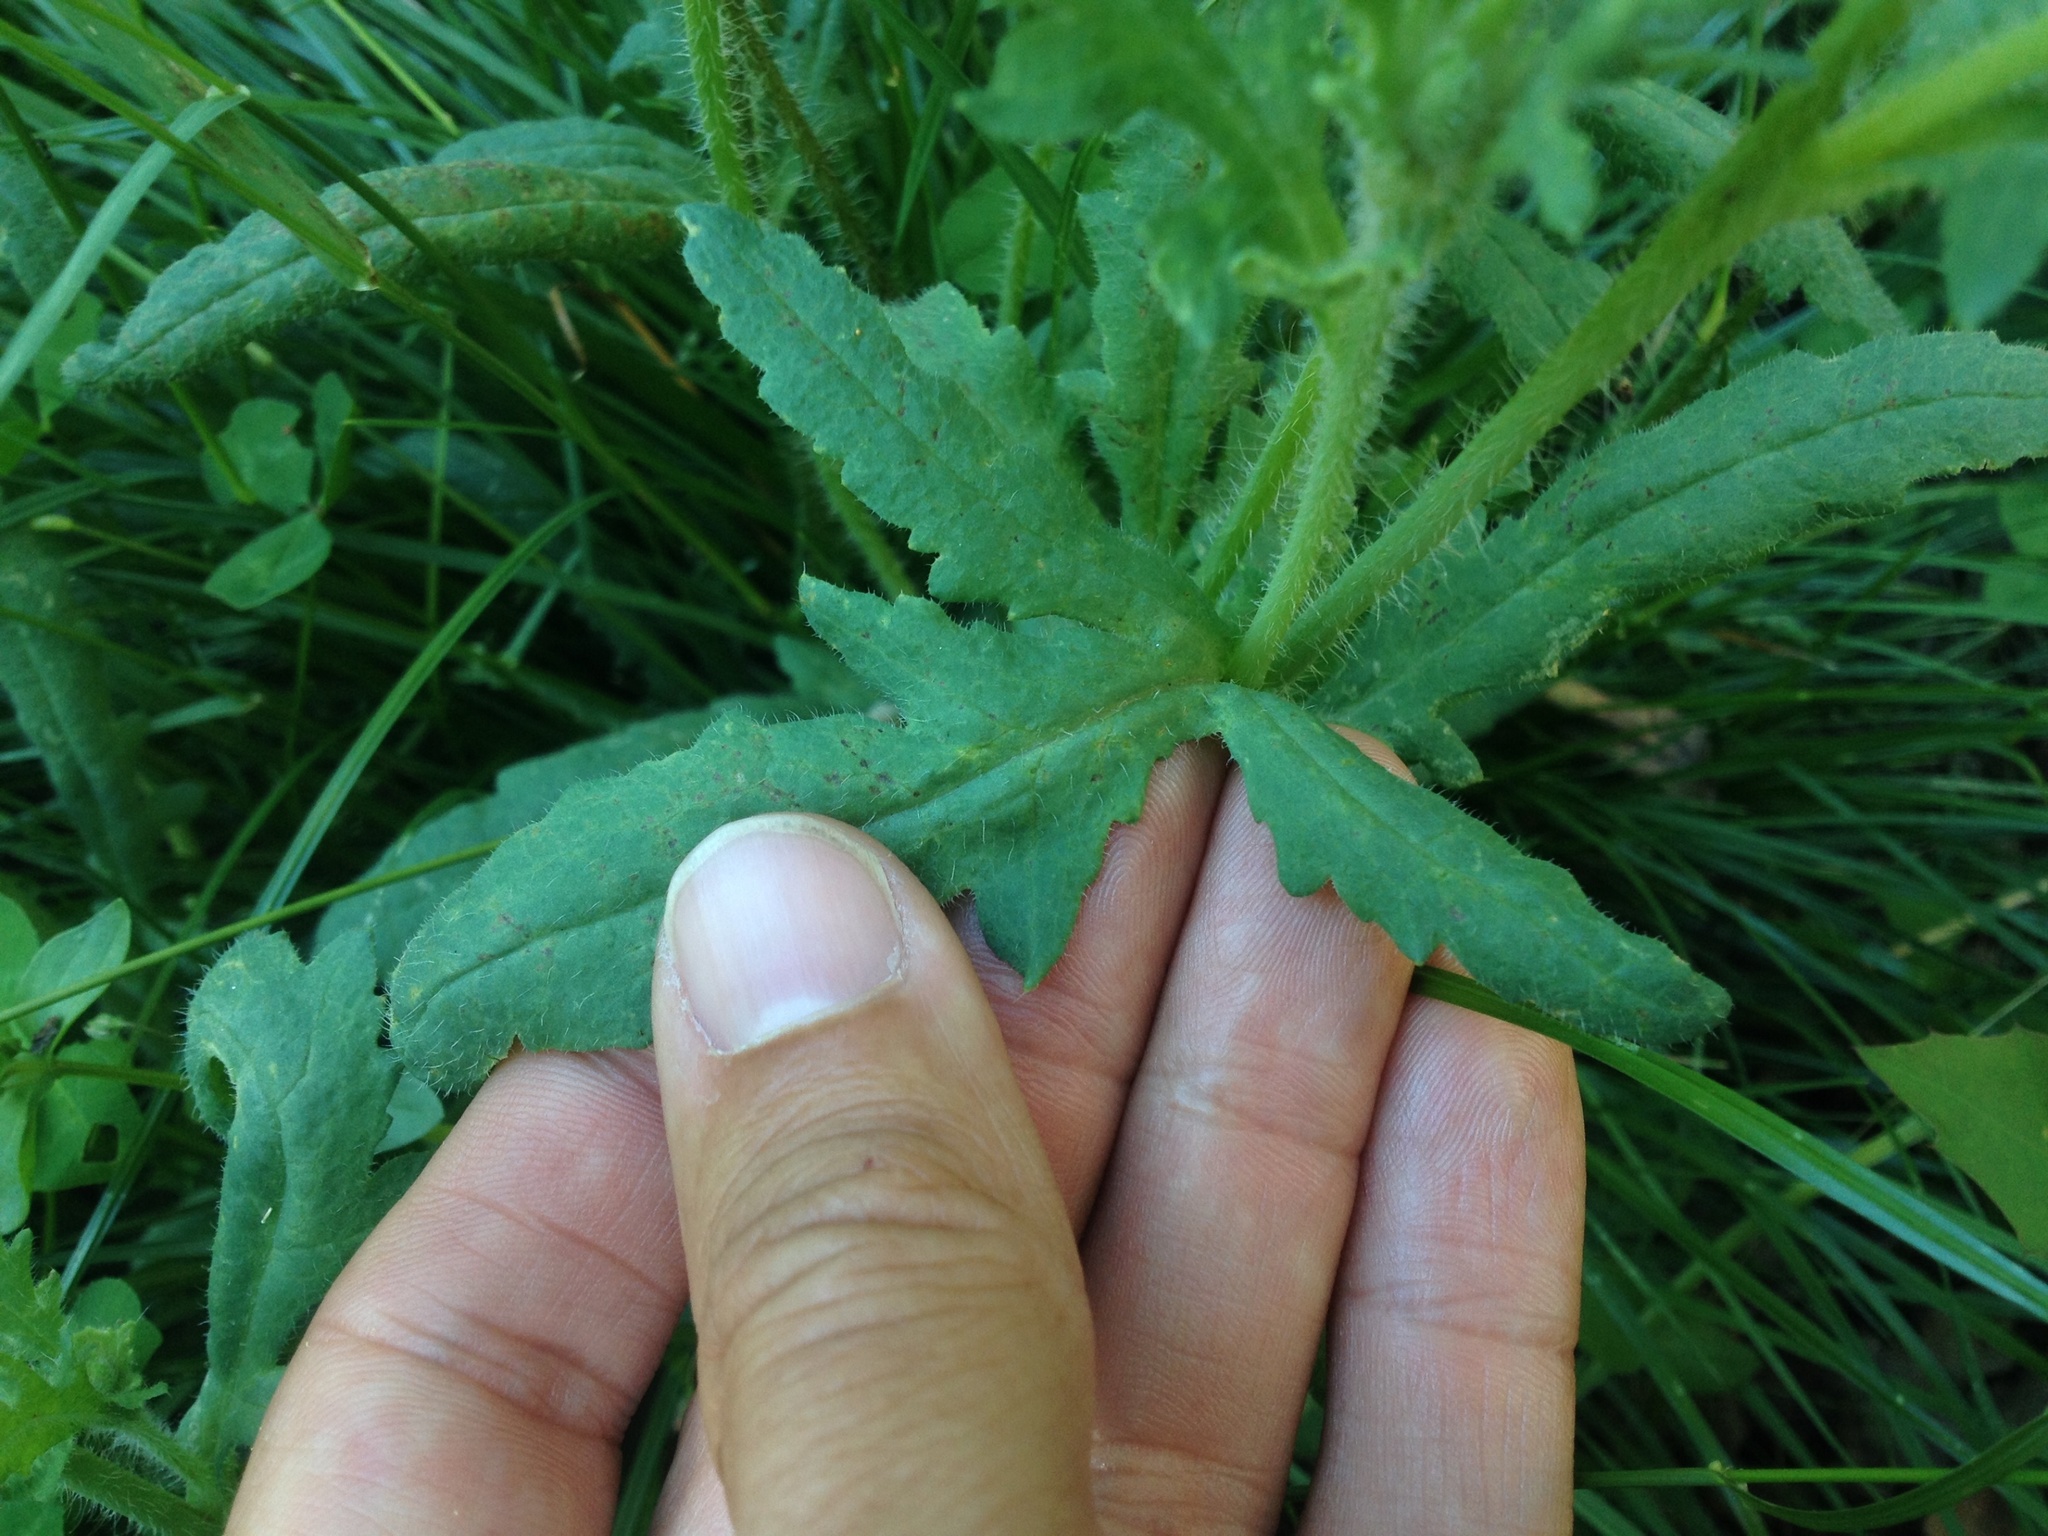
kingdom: Plantae
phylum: Tracheophyta
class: Magnoliopsida
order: Ranunculales
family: Papaveraceae
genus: Papaver
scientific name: Papaver rhoeas
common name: Corn poppy
